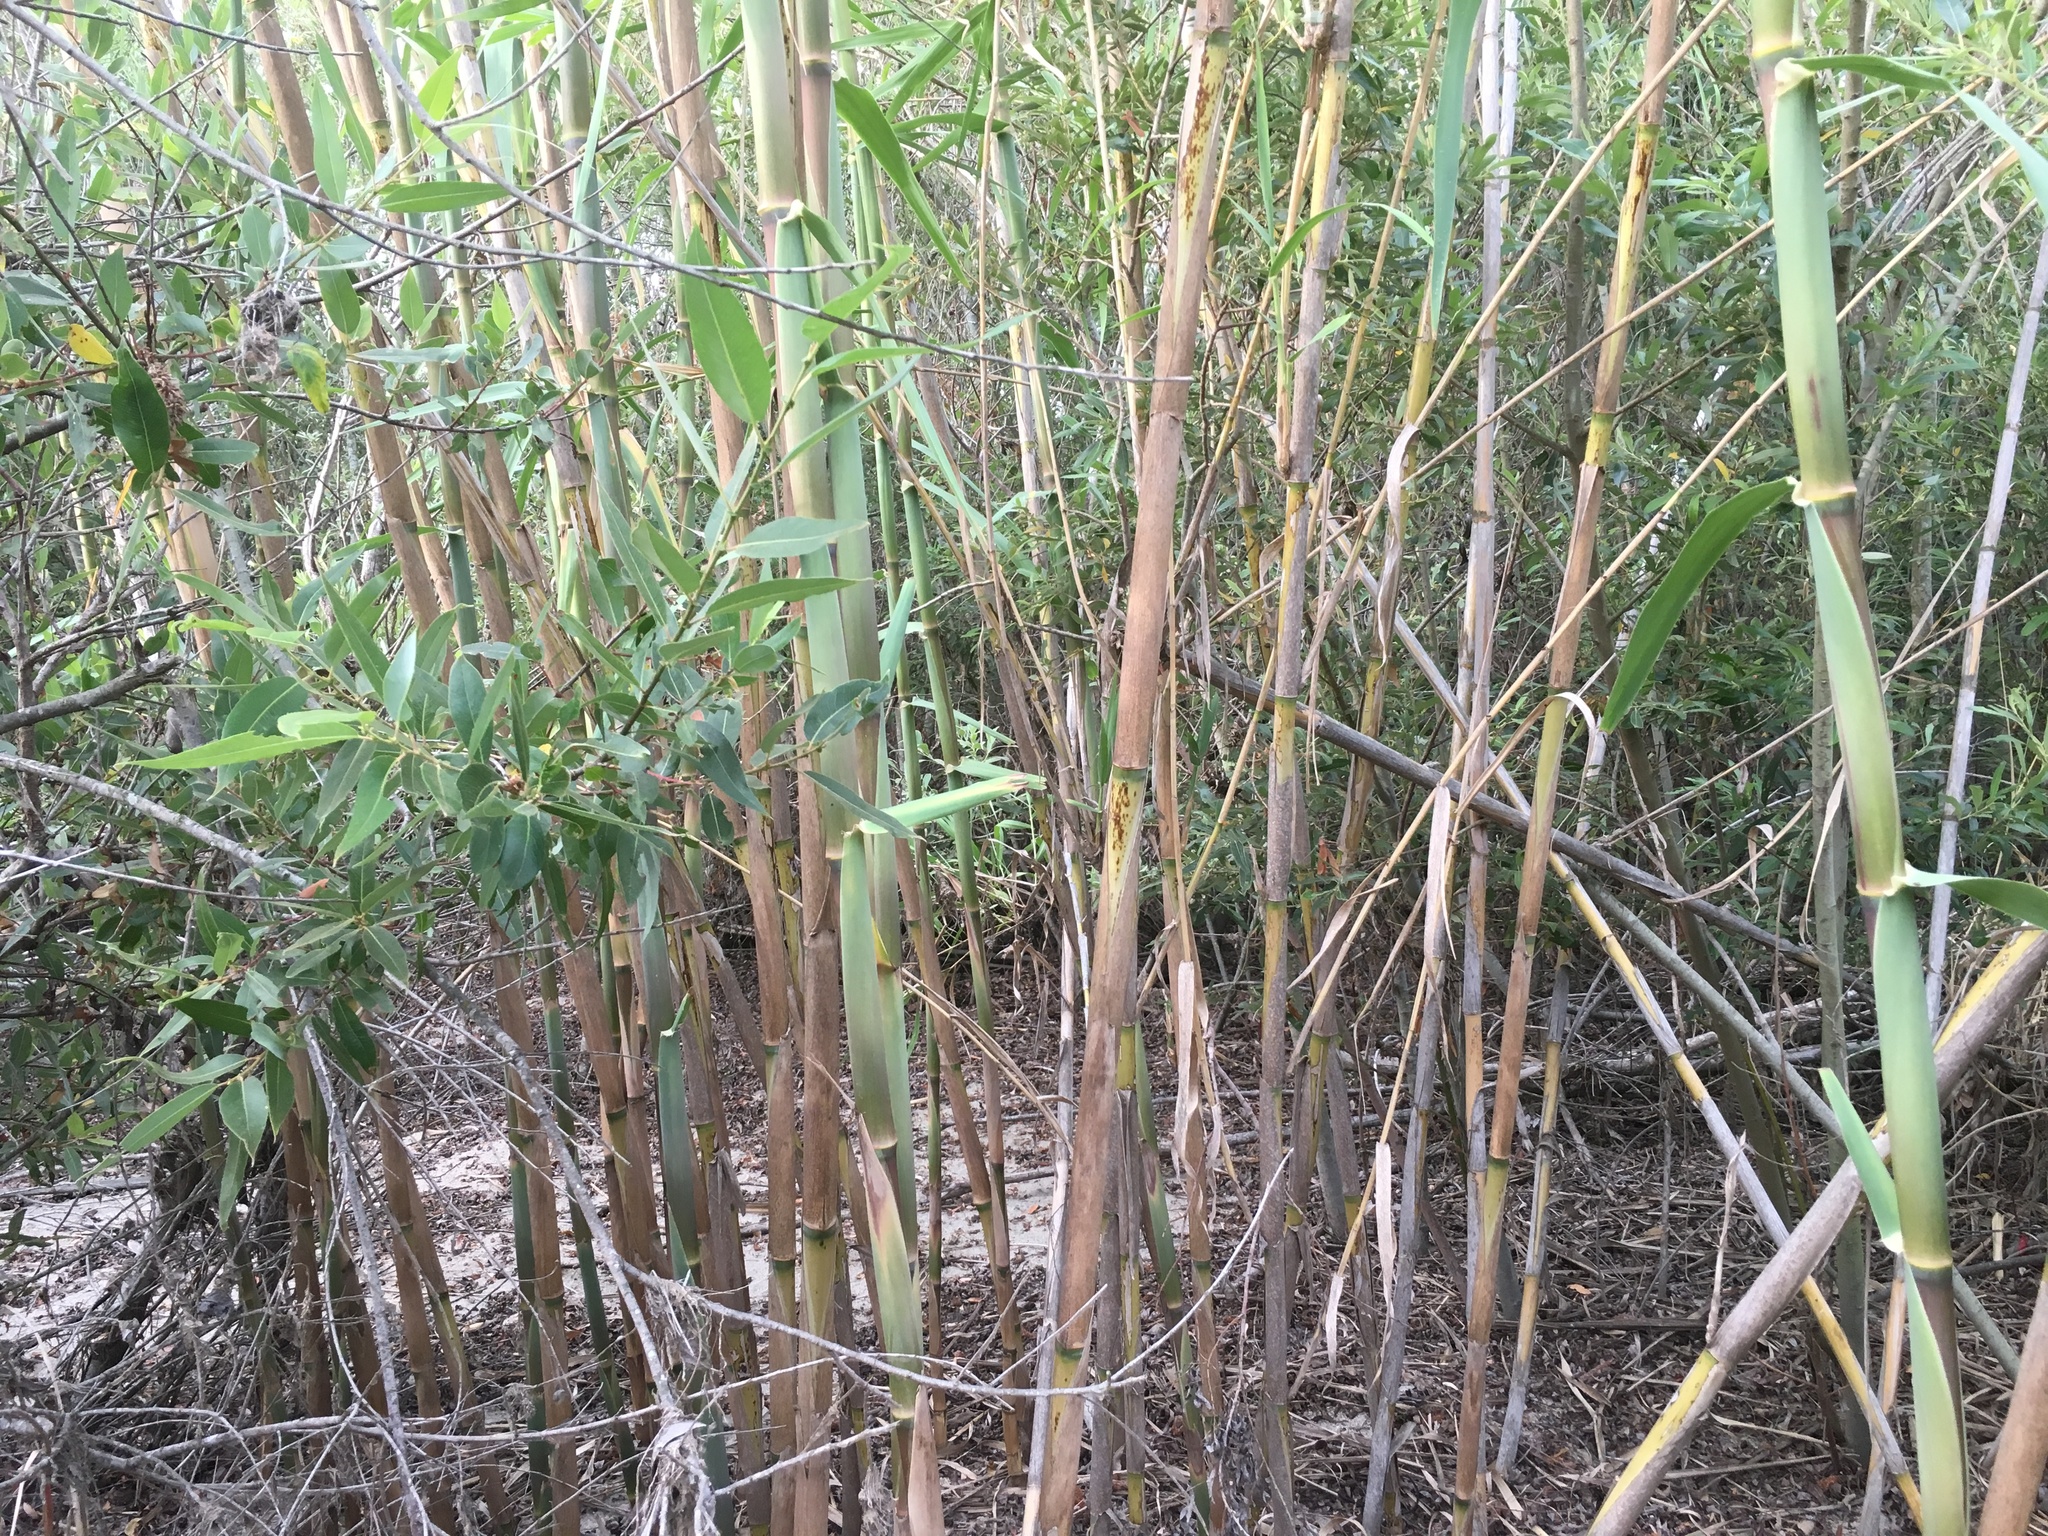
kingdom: Plantae
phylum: Tracheophyta
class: Liliopsida
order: Poales
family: Poaceae
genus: Arundo
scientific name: Arundo donax
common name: Giant reed
